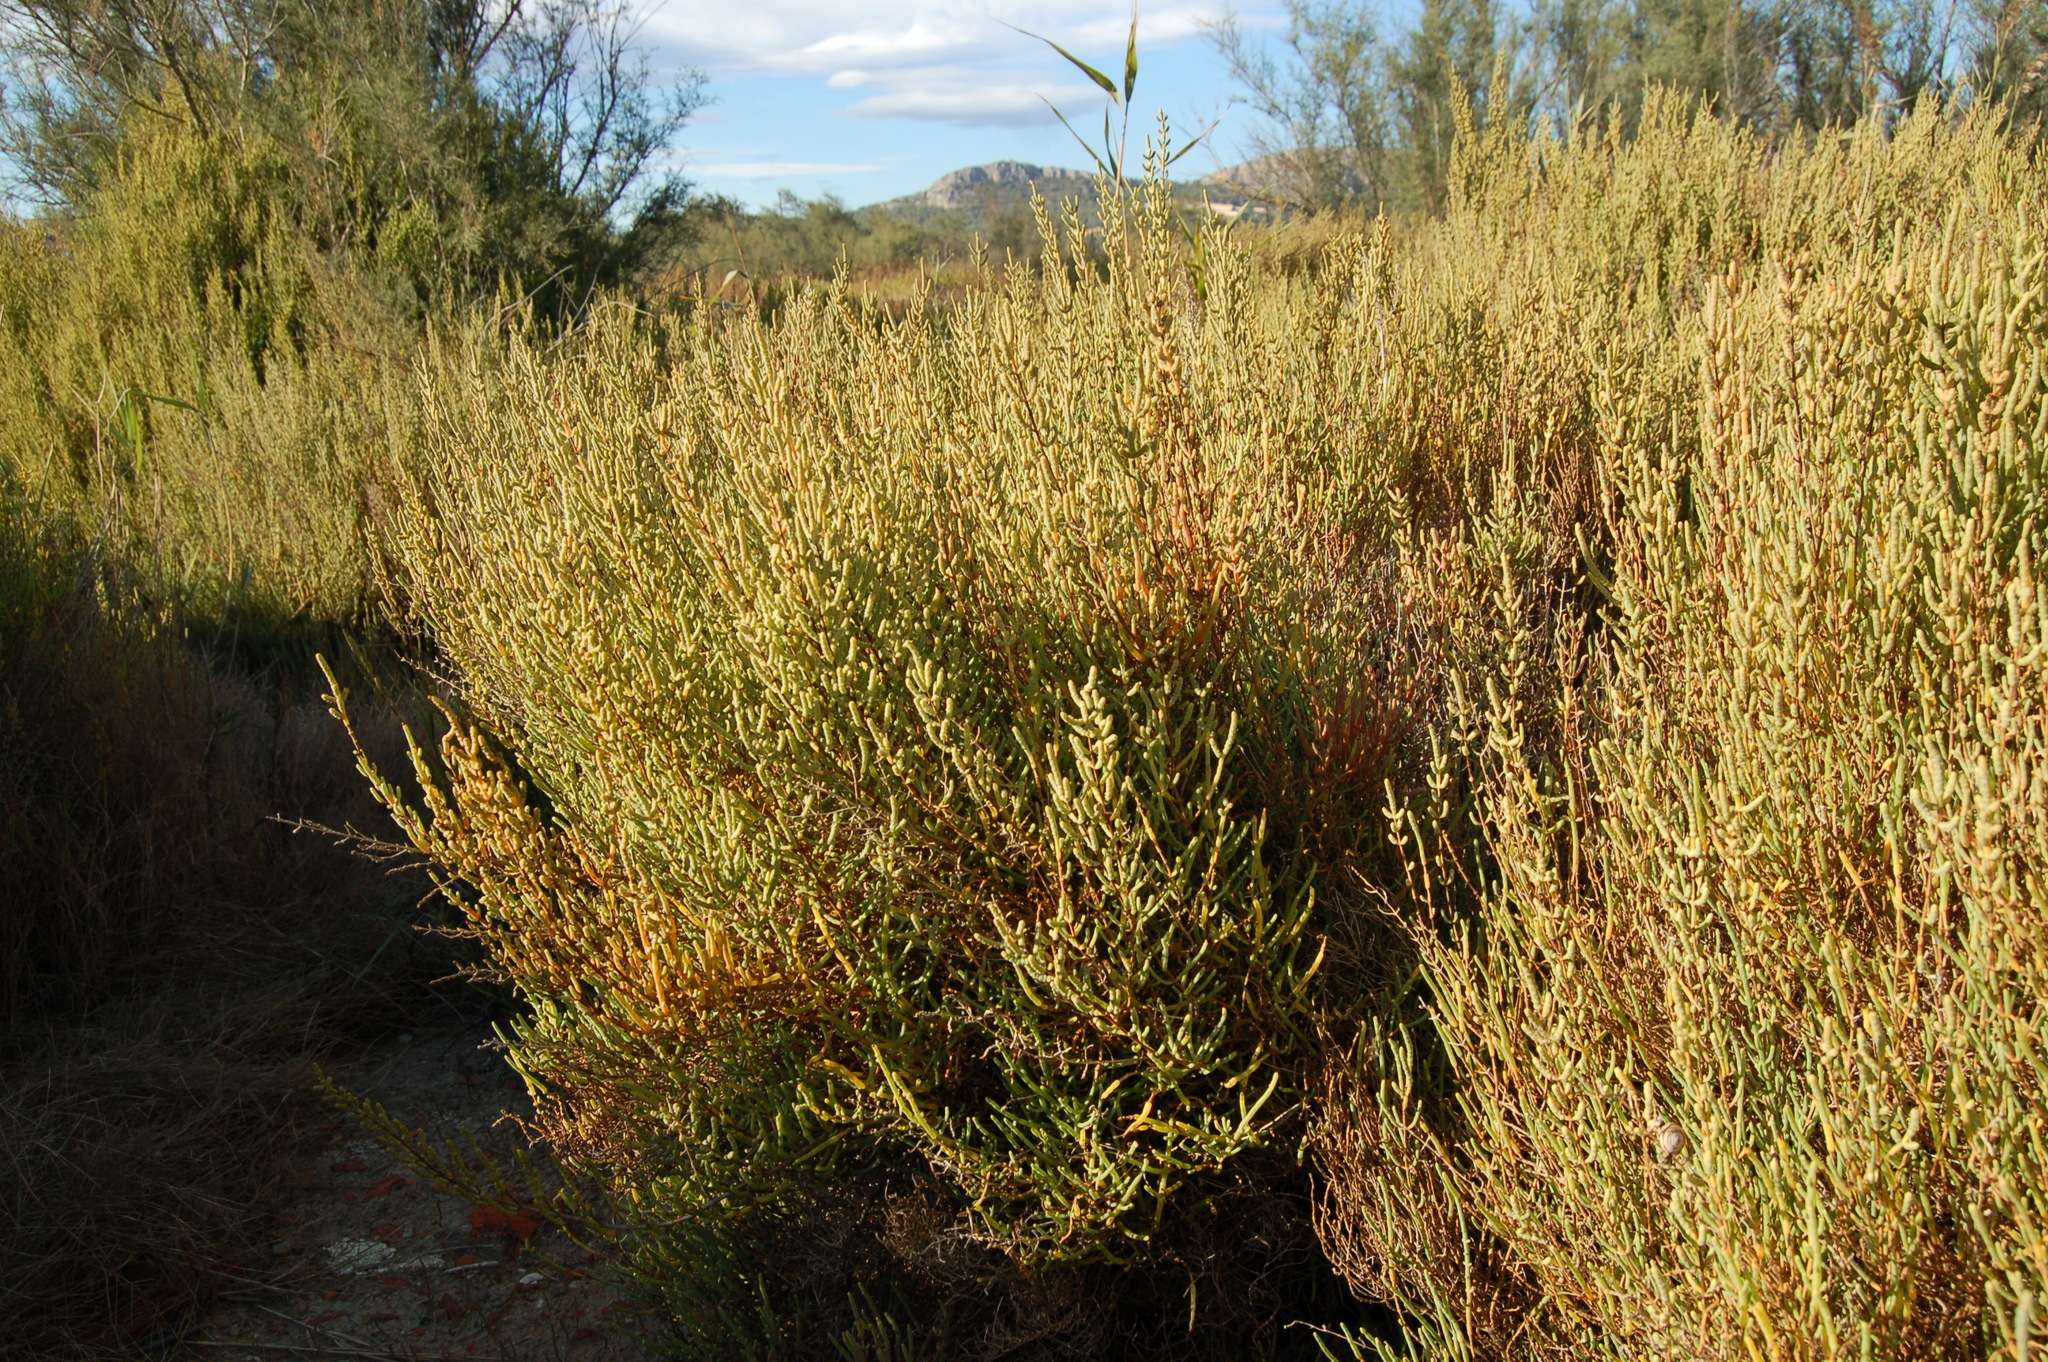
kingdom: Plantae
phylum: Tracheophyta
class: Magnoliopsida
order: Caryophyllales
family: Amaranthaceae
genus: Salicornia
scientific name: Salicornia fruticosa
